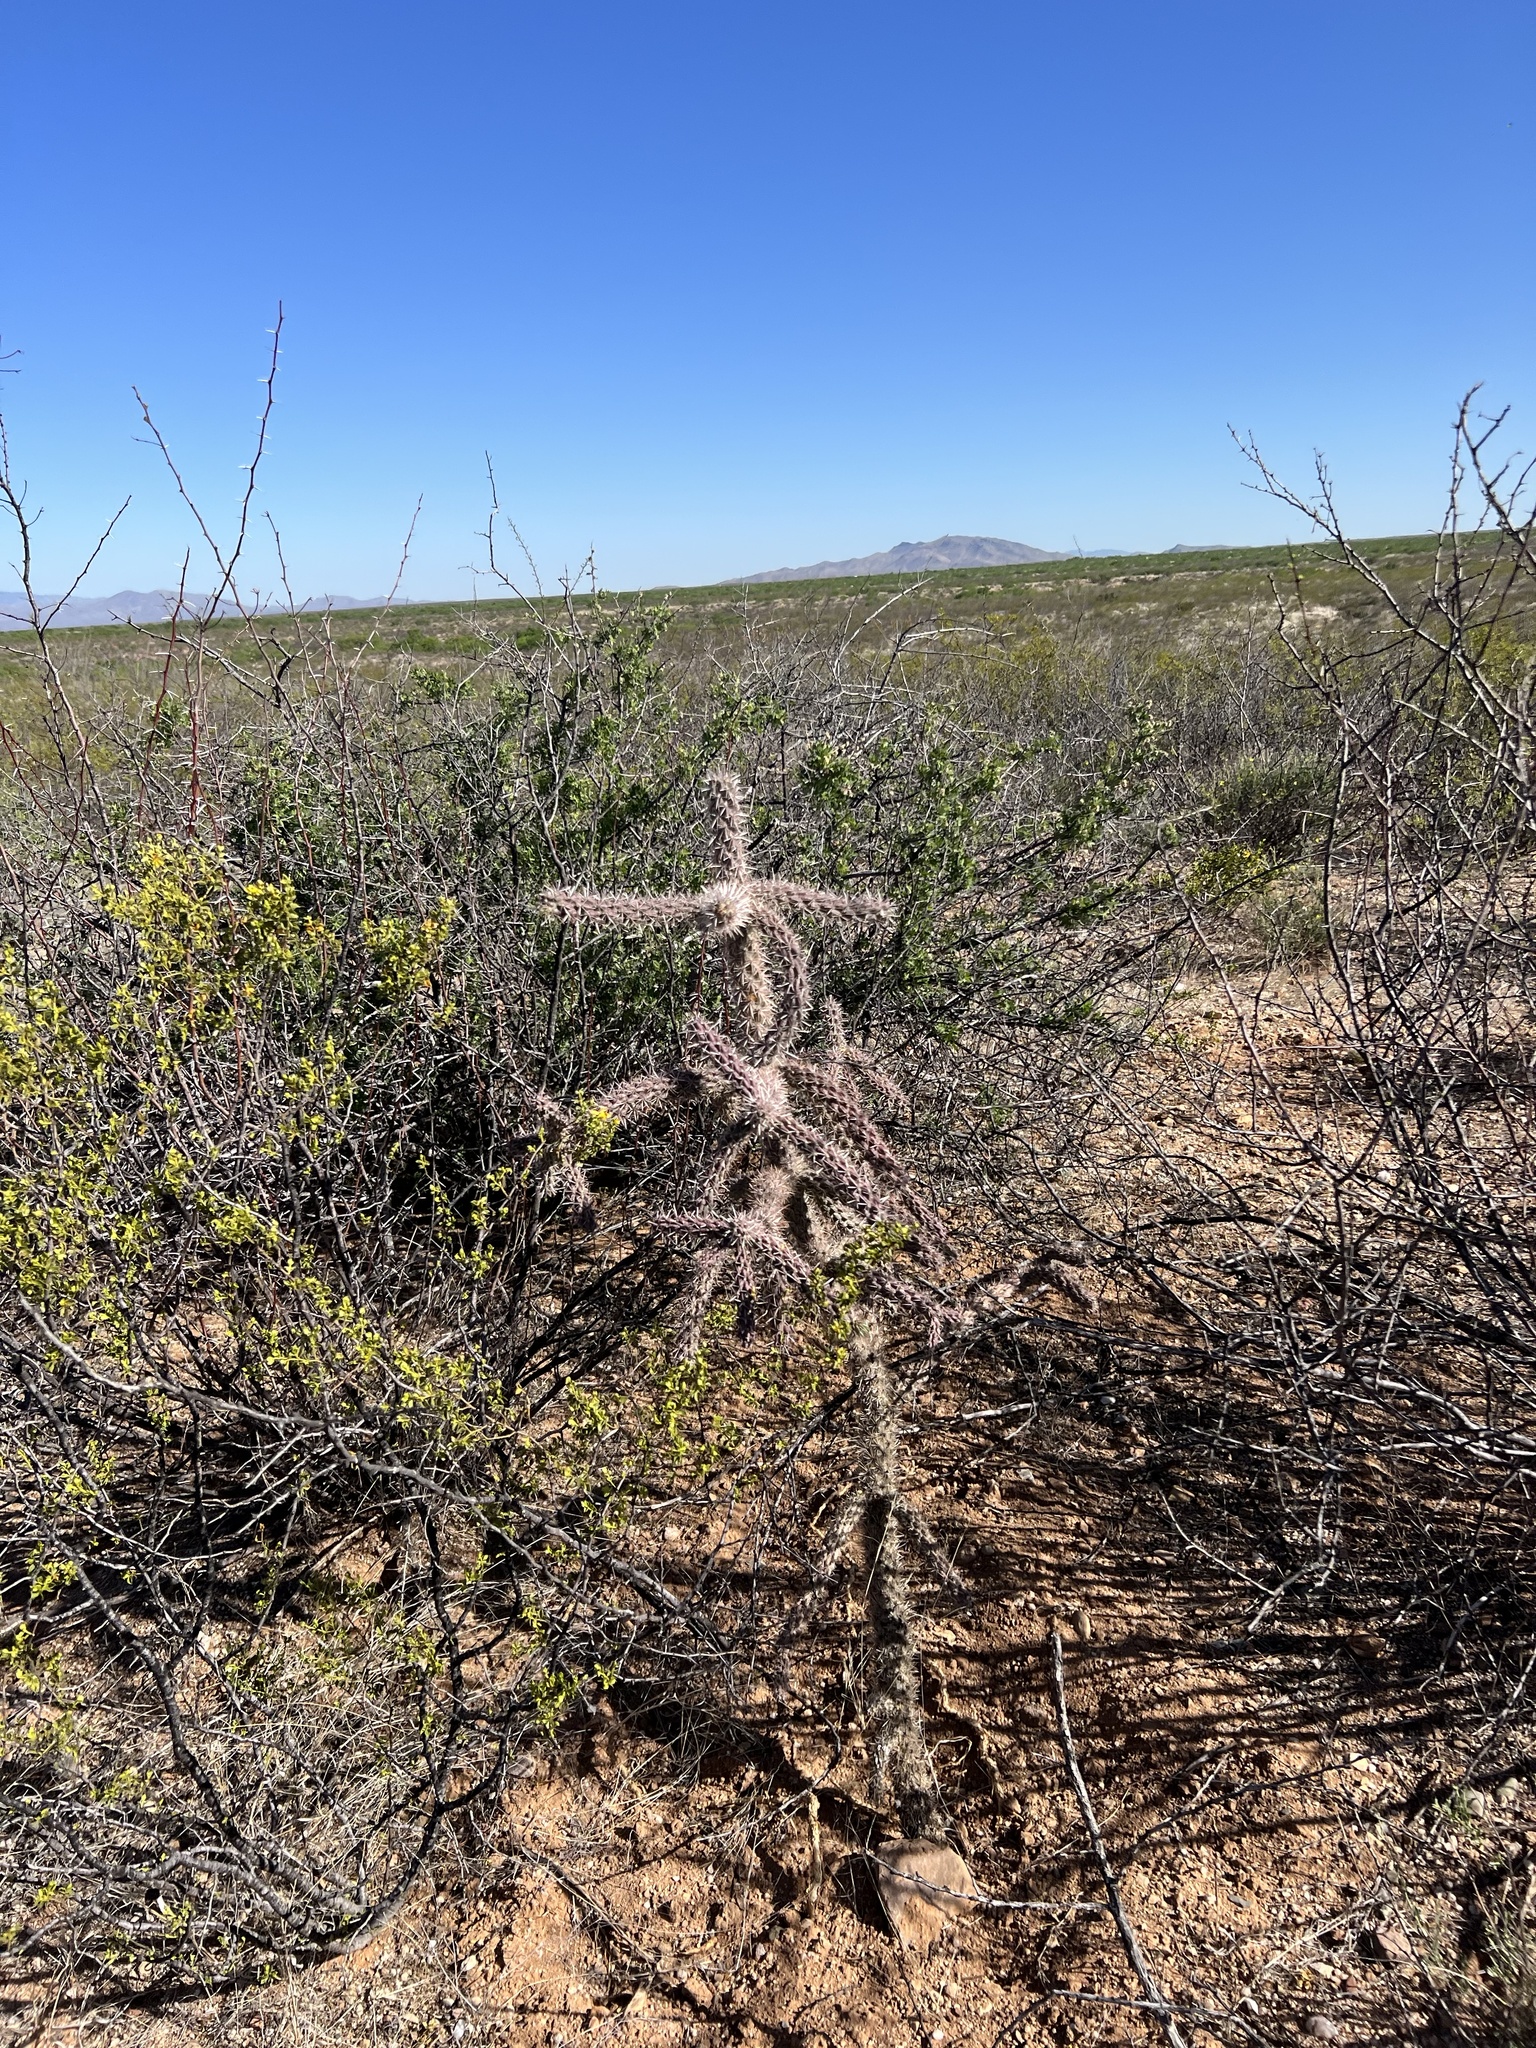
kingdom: Plantae
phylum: Tracheophyta
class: Magnoliopsida
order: Caryophyllales
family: Cactaceae
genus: Cylindropuntia
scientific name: Cylindropuntia imbricata
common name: Candelabrum cactus
